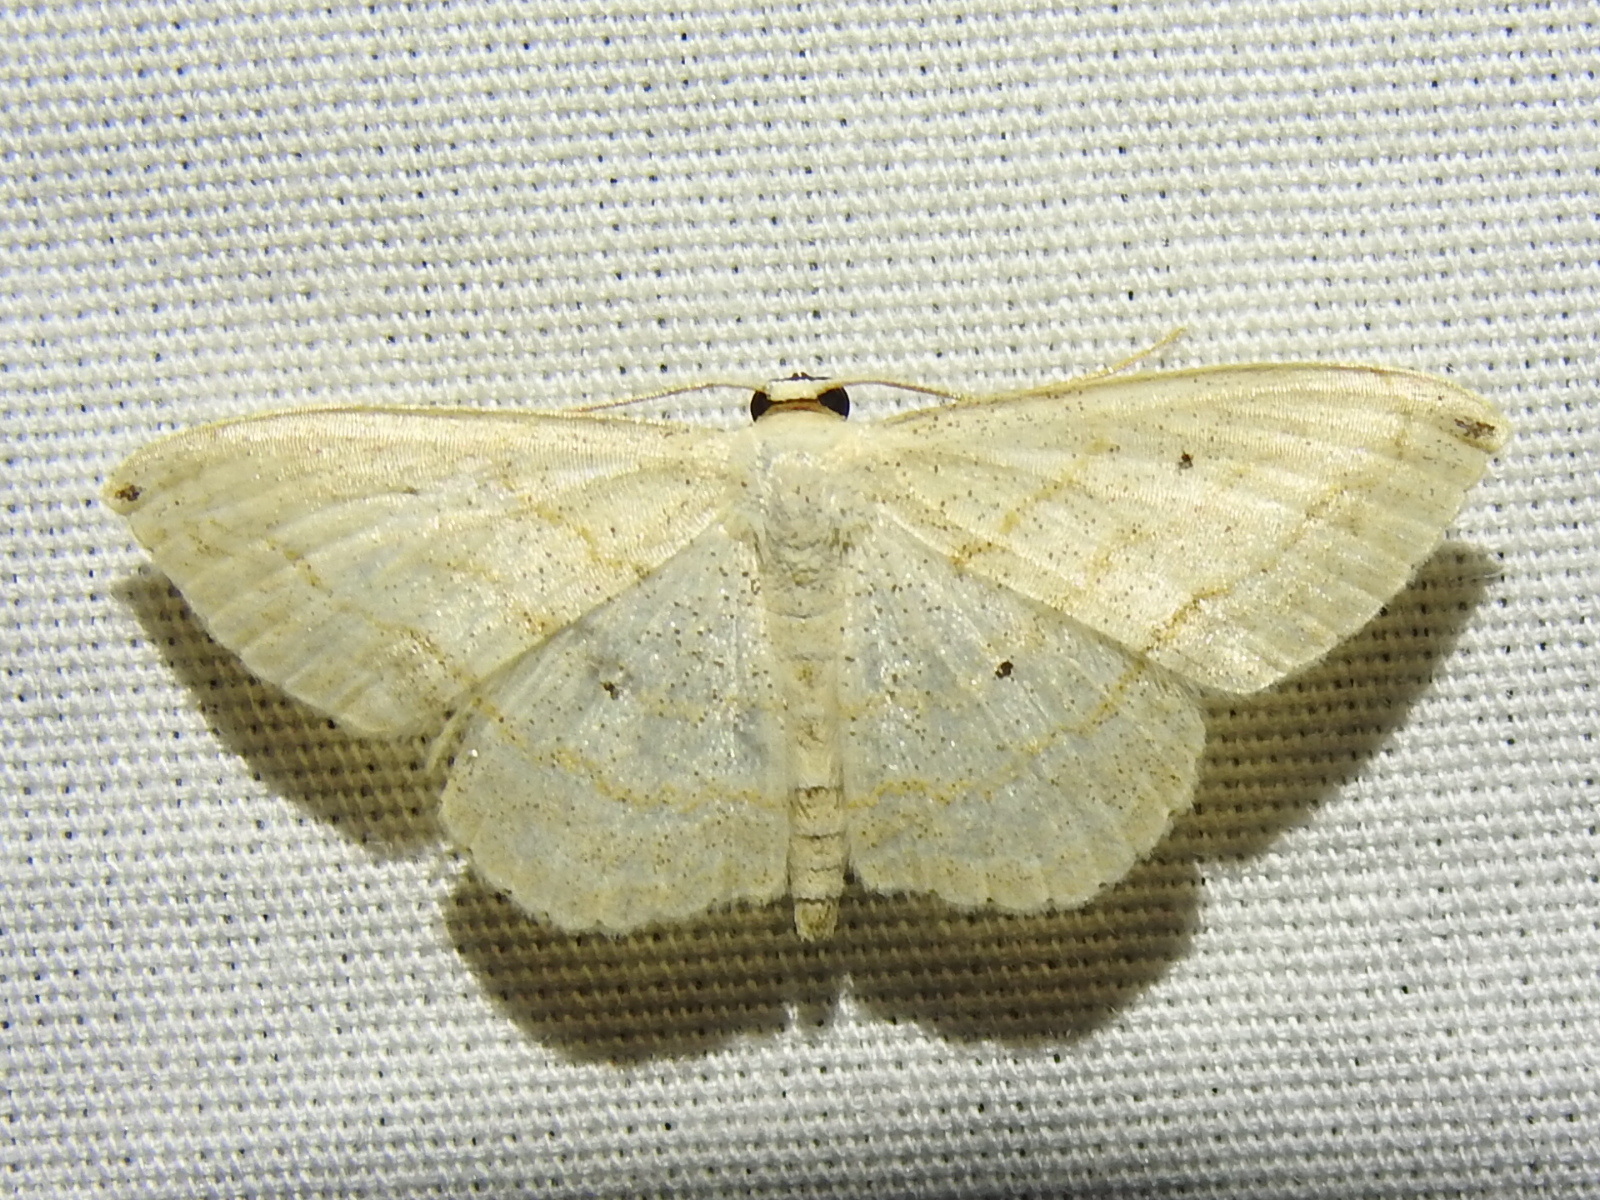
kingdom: Animalia
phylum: Arthropoda
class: Insecta
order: Lepidoptera
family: Geometridae
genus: Scopula
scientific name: Scopula umbilicata
